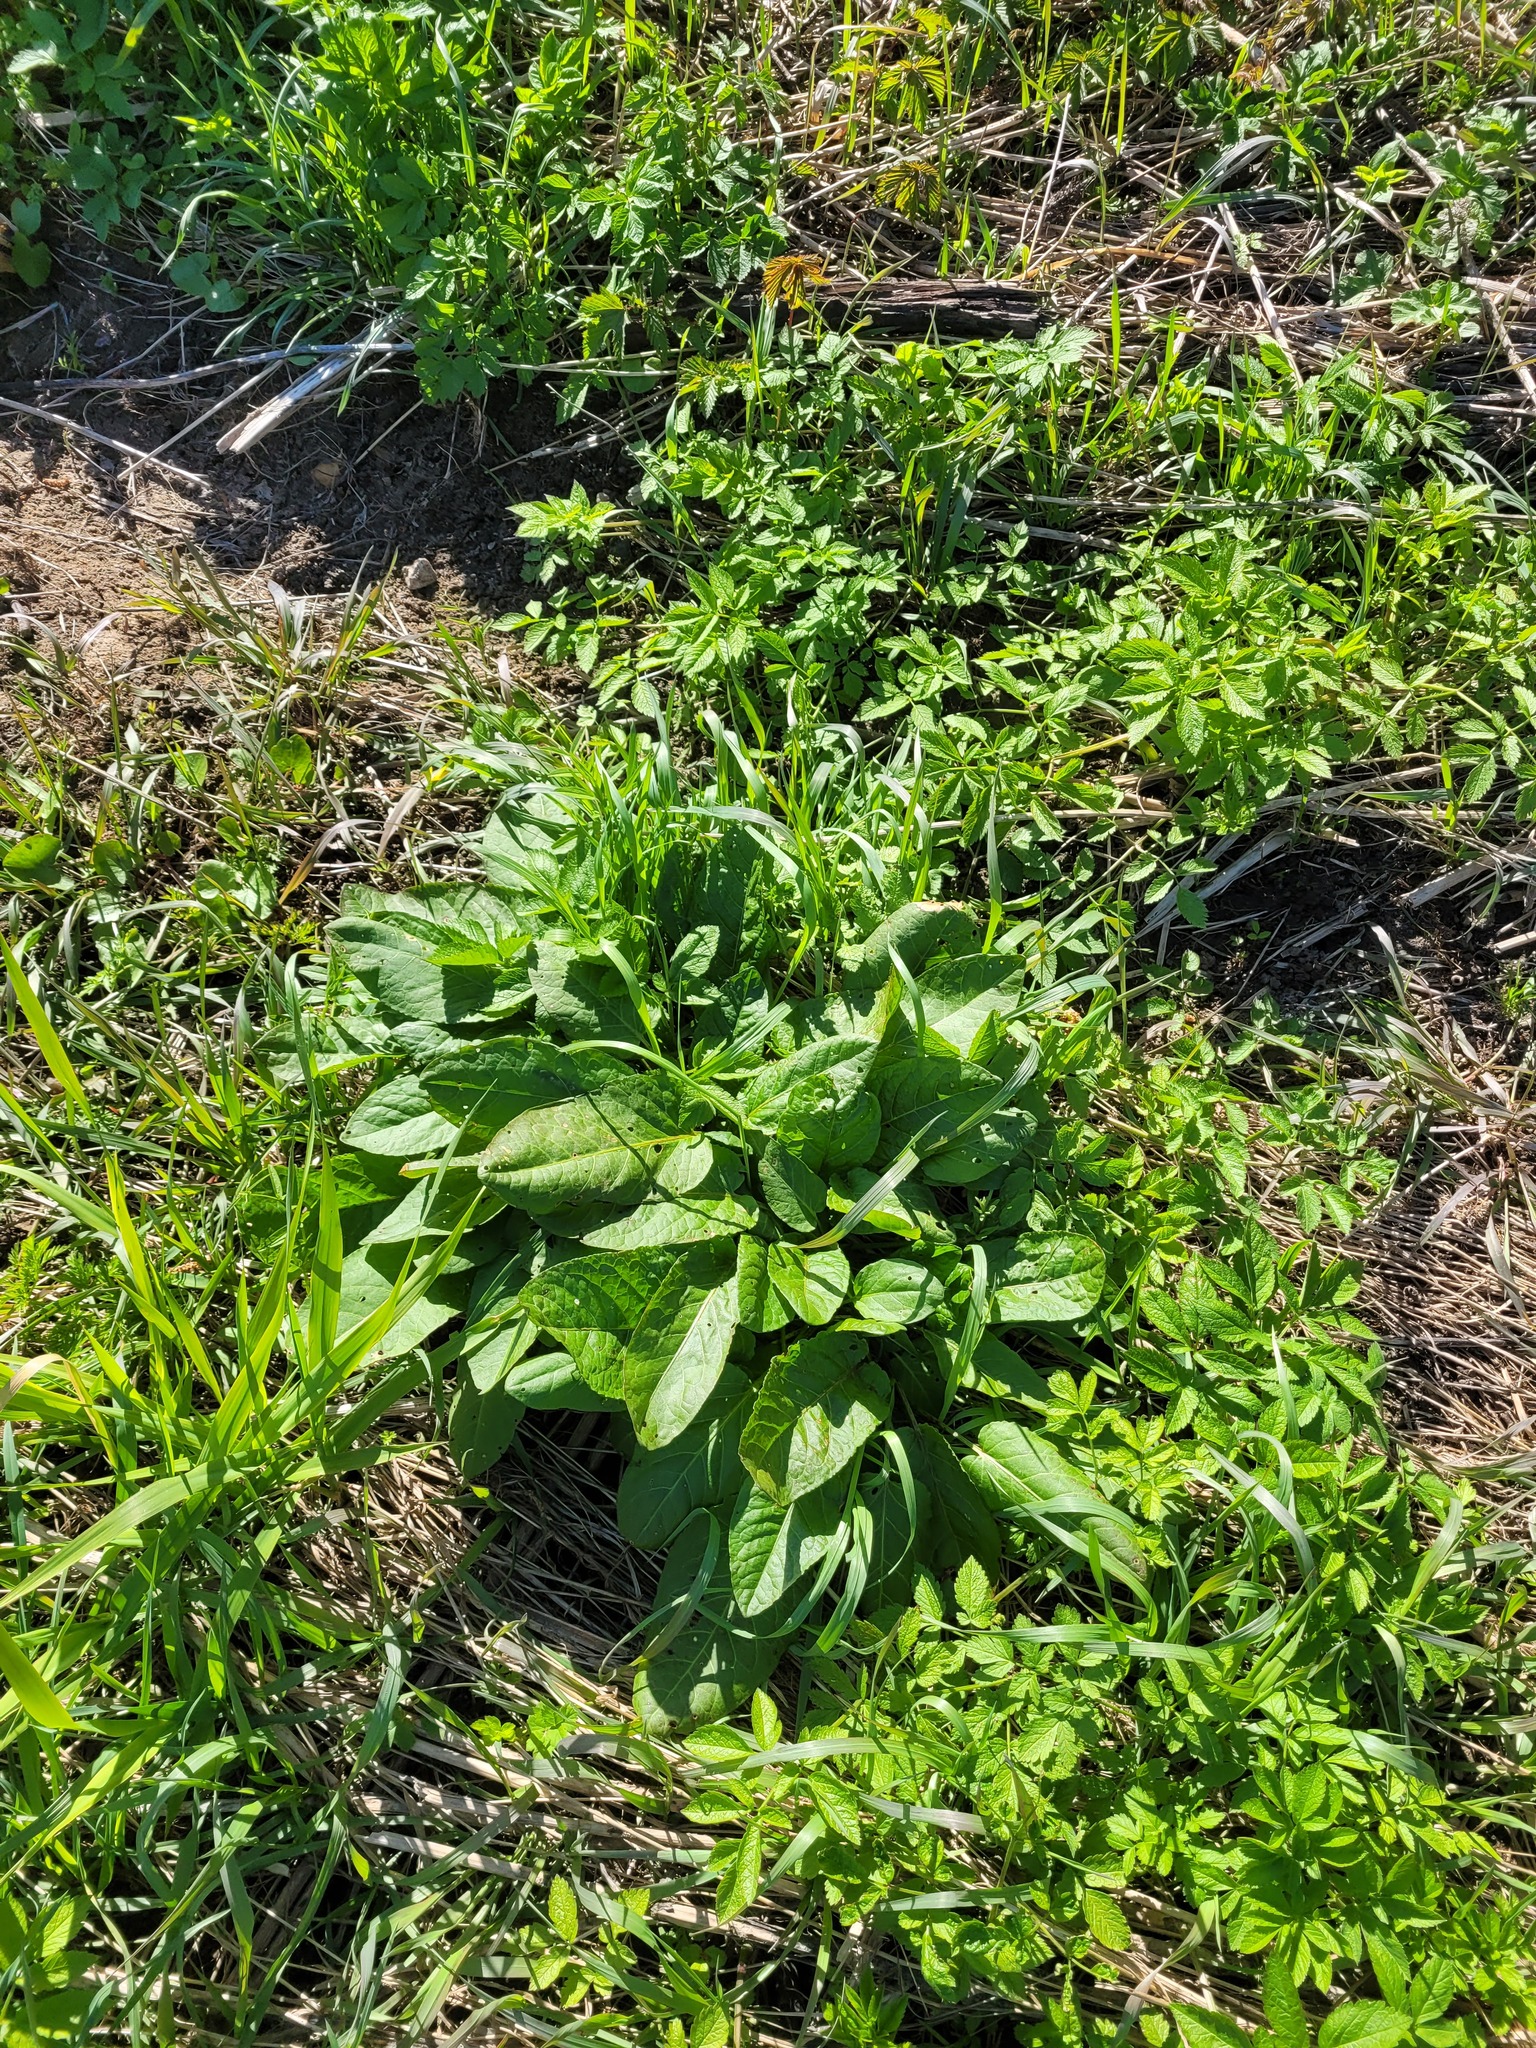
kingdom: Plantae
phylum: Tracheophyta
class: Magnoliopsida
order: Caryophyllales
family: Polygonaceae
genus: Rumex
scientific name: Rumex obtusifolius
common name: Bitter dock
